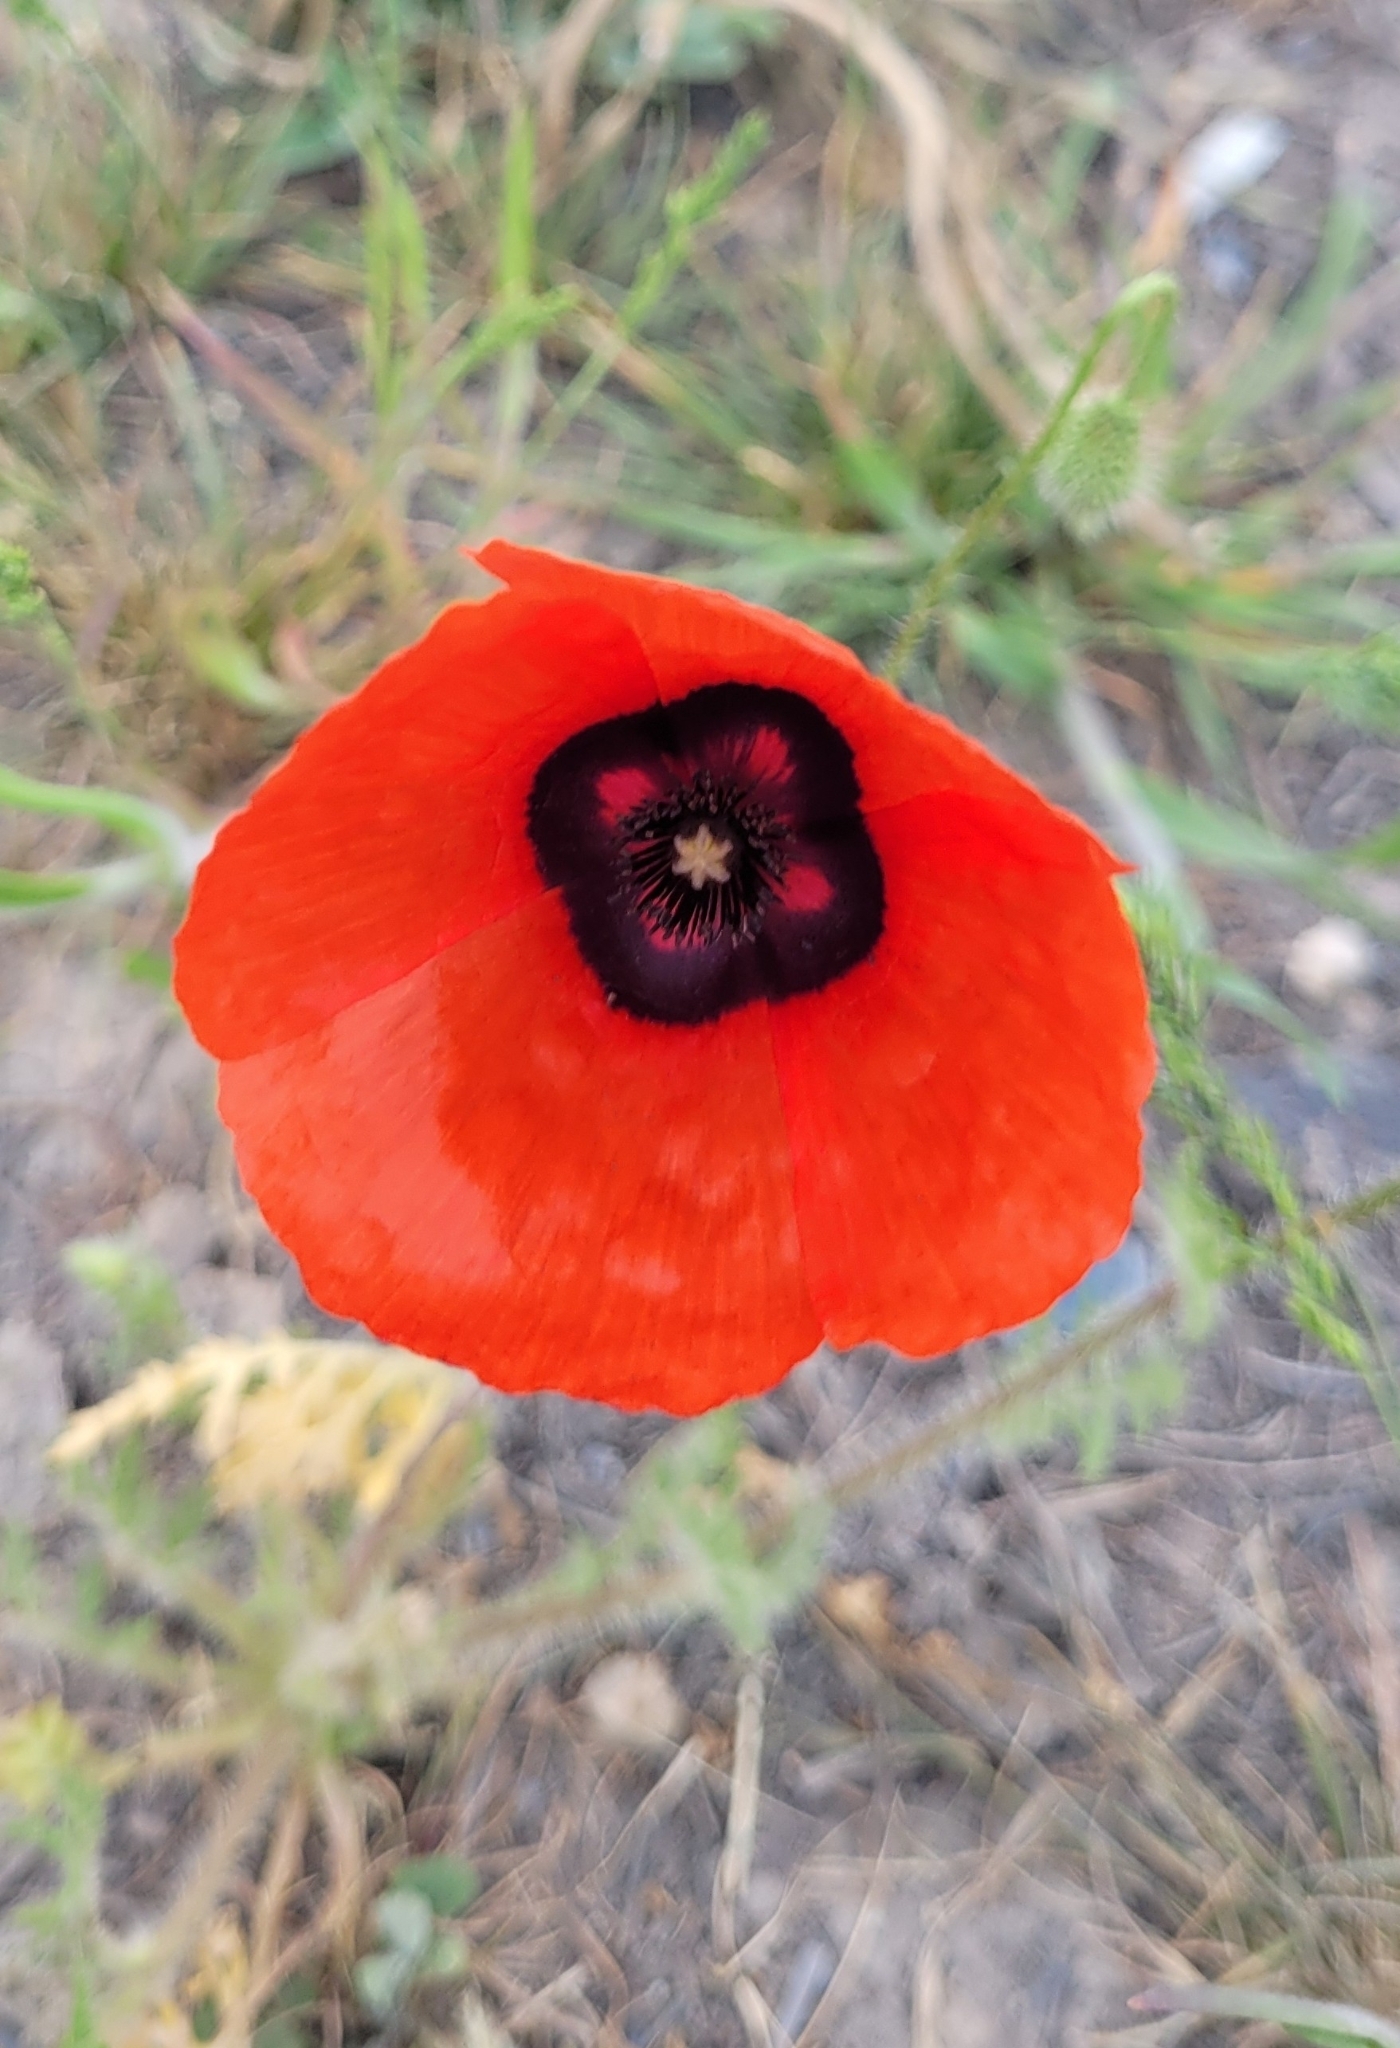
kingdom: Plantae
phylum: Tracheophyta
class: Magnoliopsida
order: Ranunculales
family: Papaveraceae
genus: Roemeria
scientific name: Roemeria pavonina
